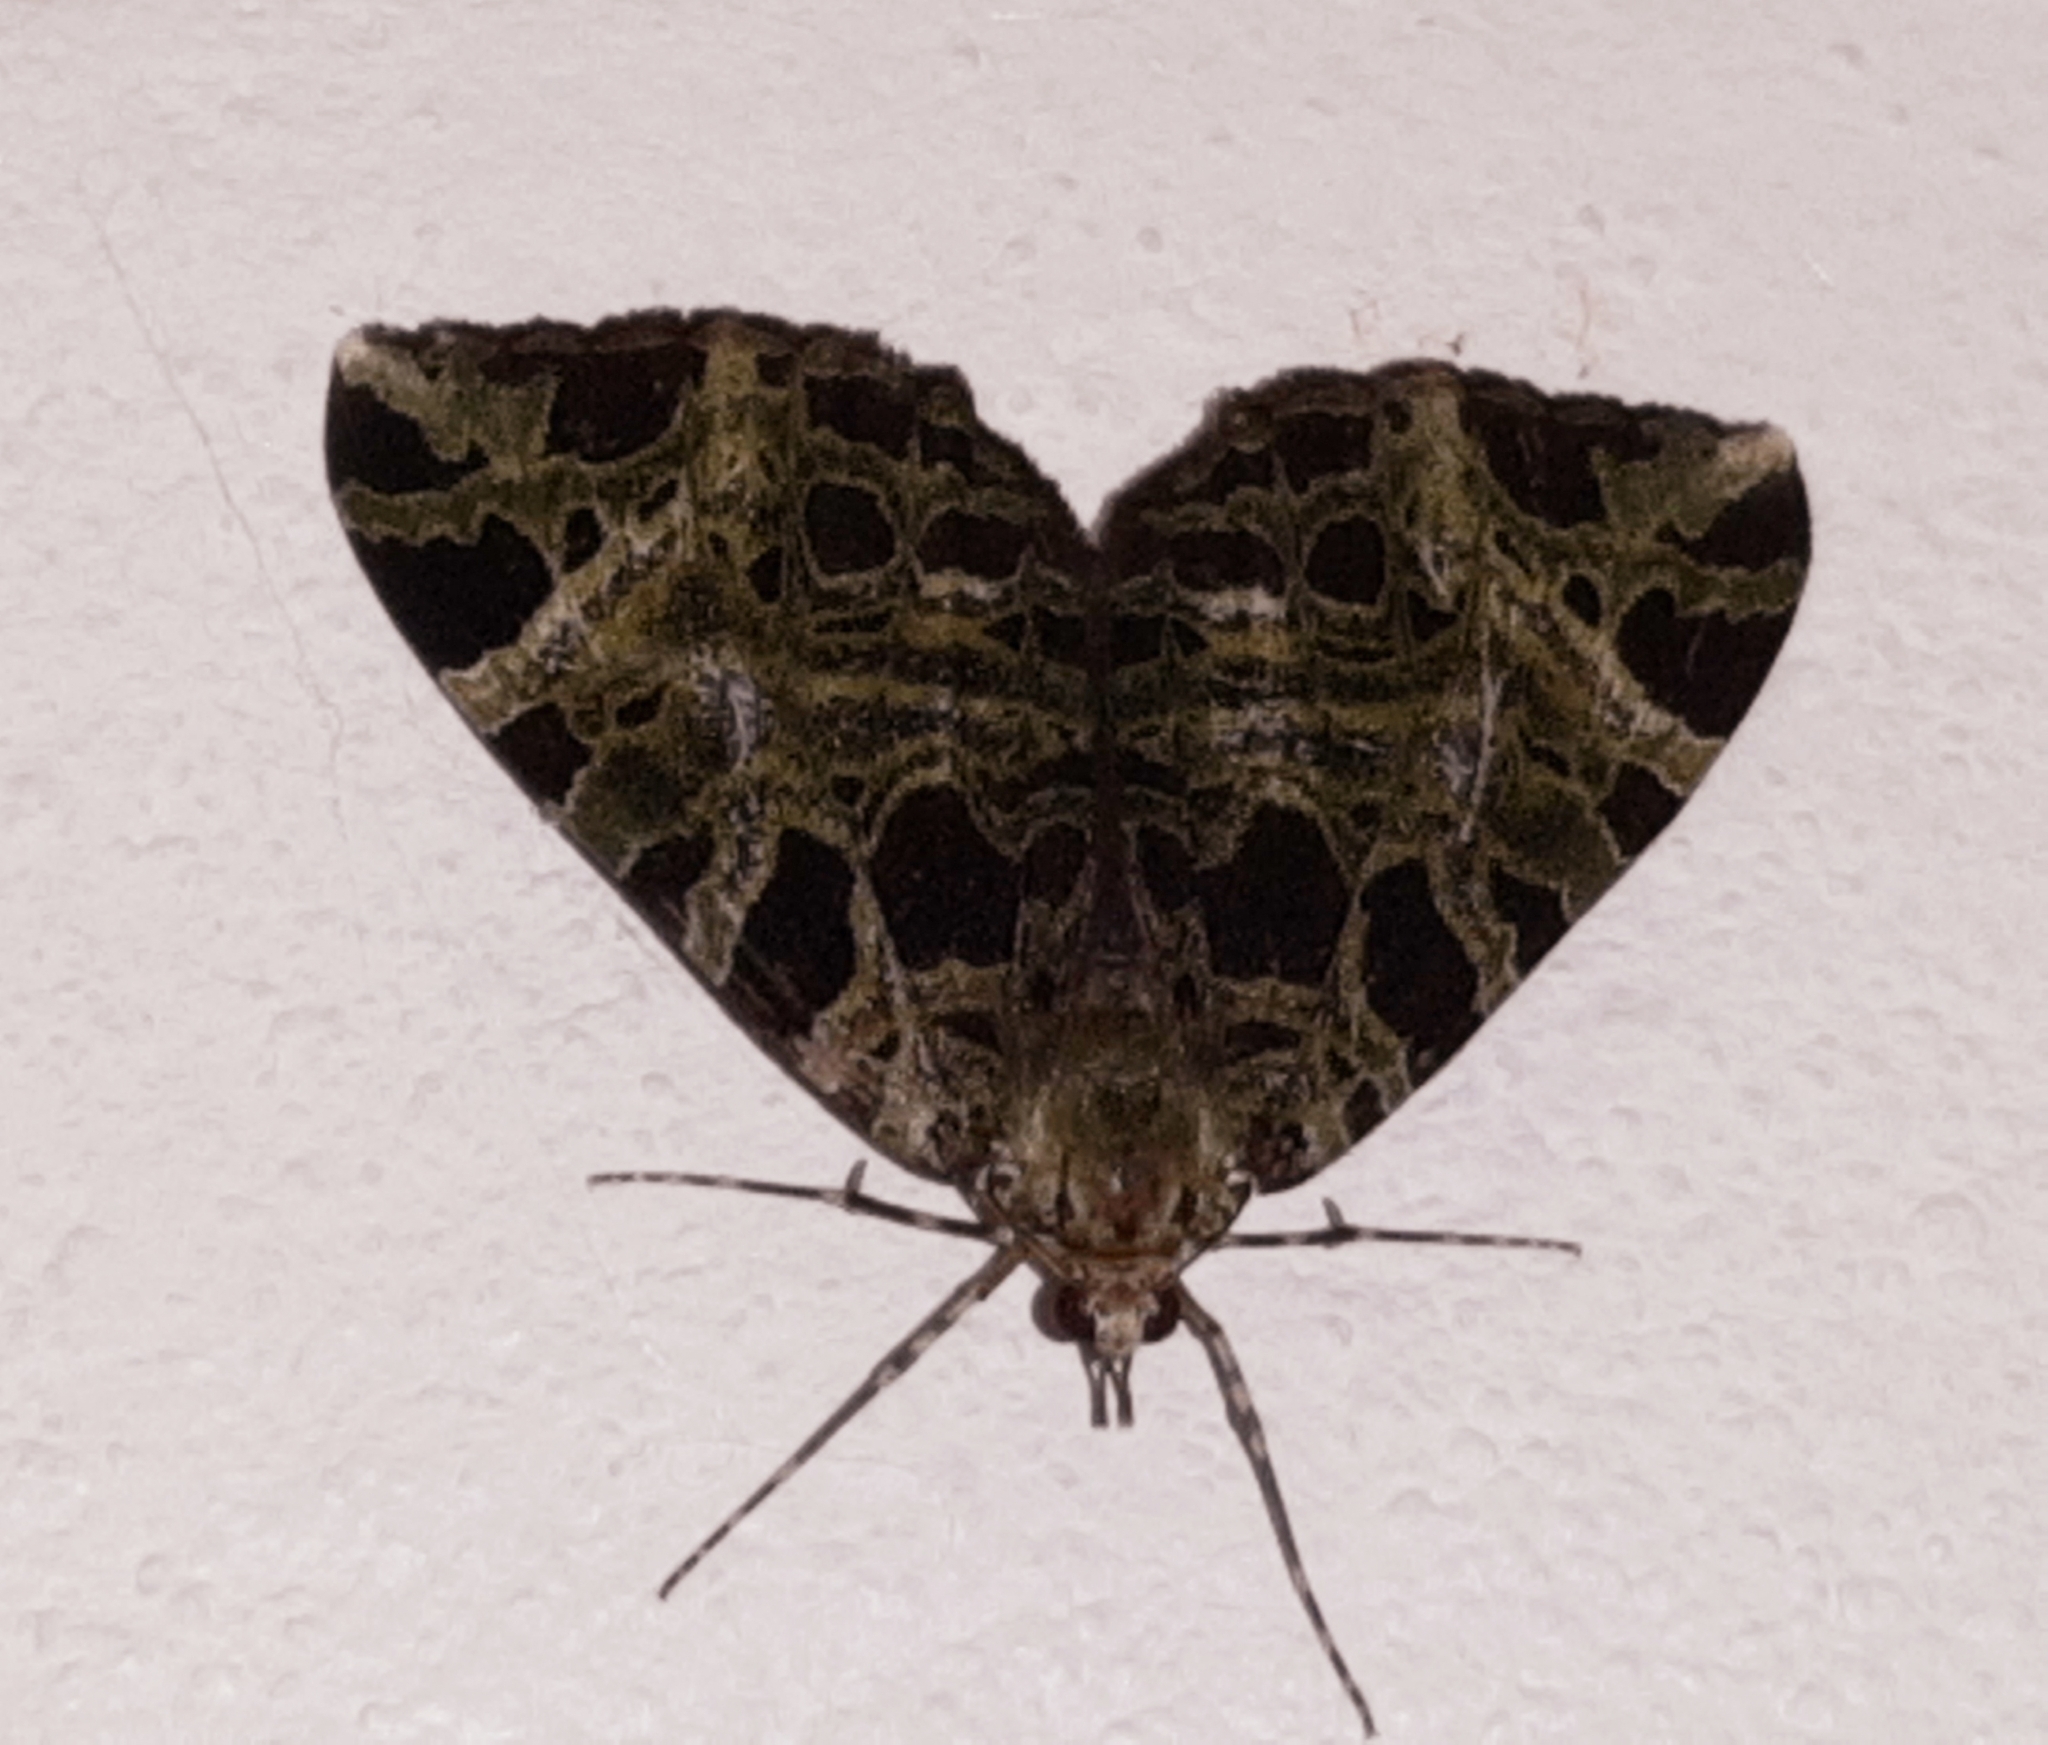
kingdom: Animalia
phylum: Arthropoda
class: Insecta
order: Lepidoptera
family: Geometridae
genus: Erebochlora
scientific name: Erebochlora tesserulata
